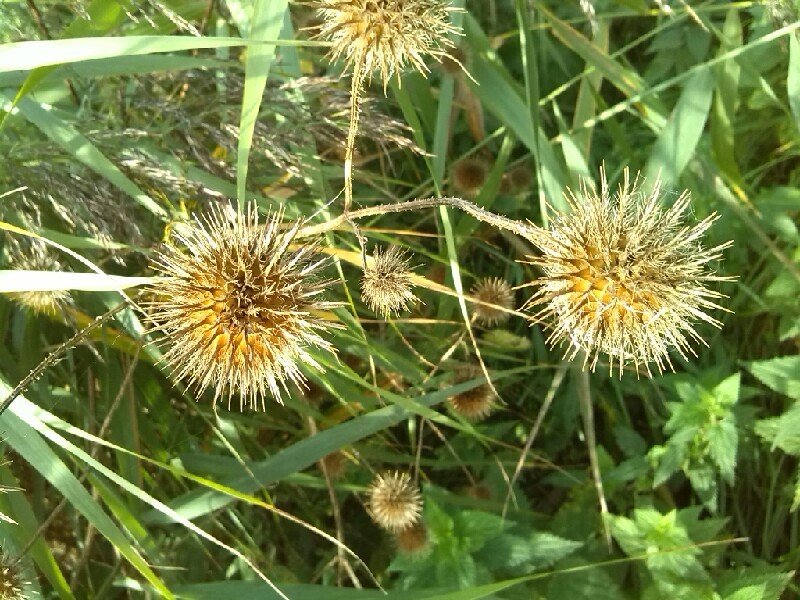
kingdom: Plantae
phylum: Tracheophyta
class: Magnoliopsida
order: Dipsacales
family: Caprifoliaceae
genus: Dipsacus
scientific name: Dipsacus strigosus
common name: Yellow-flowered teasel
